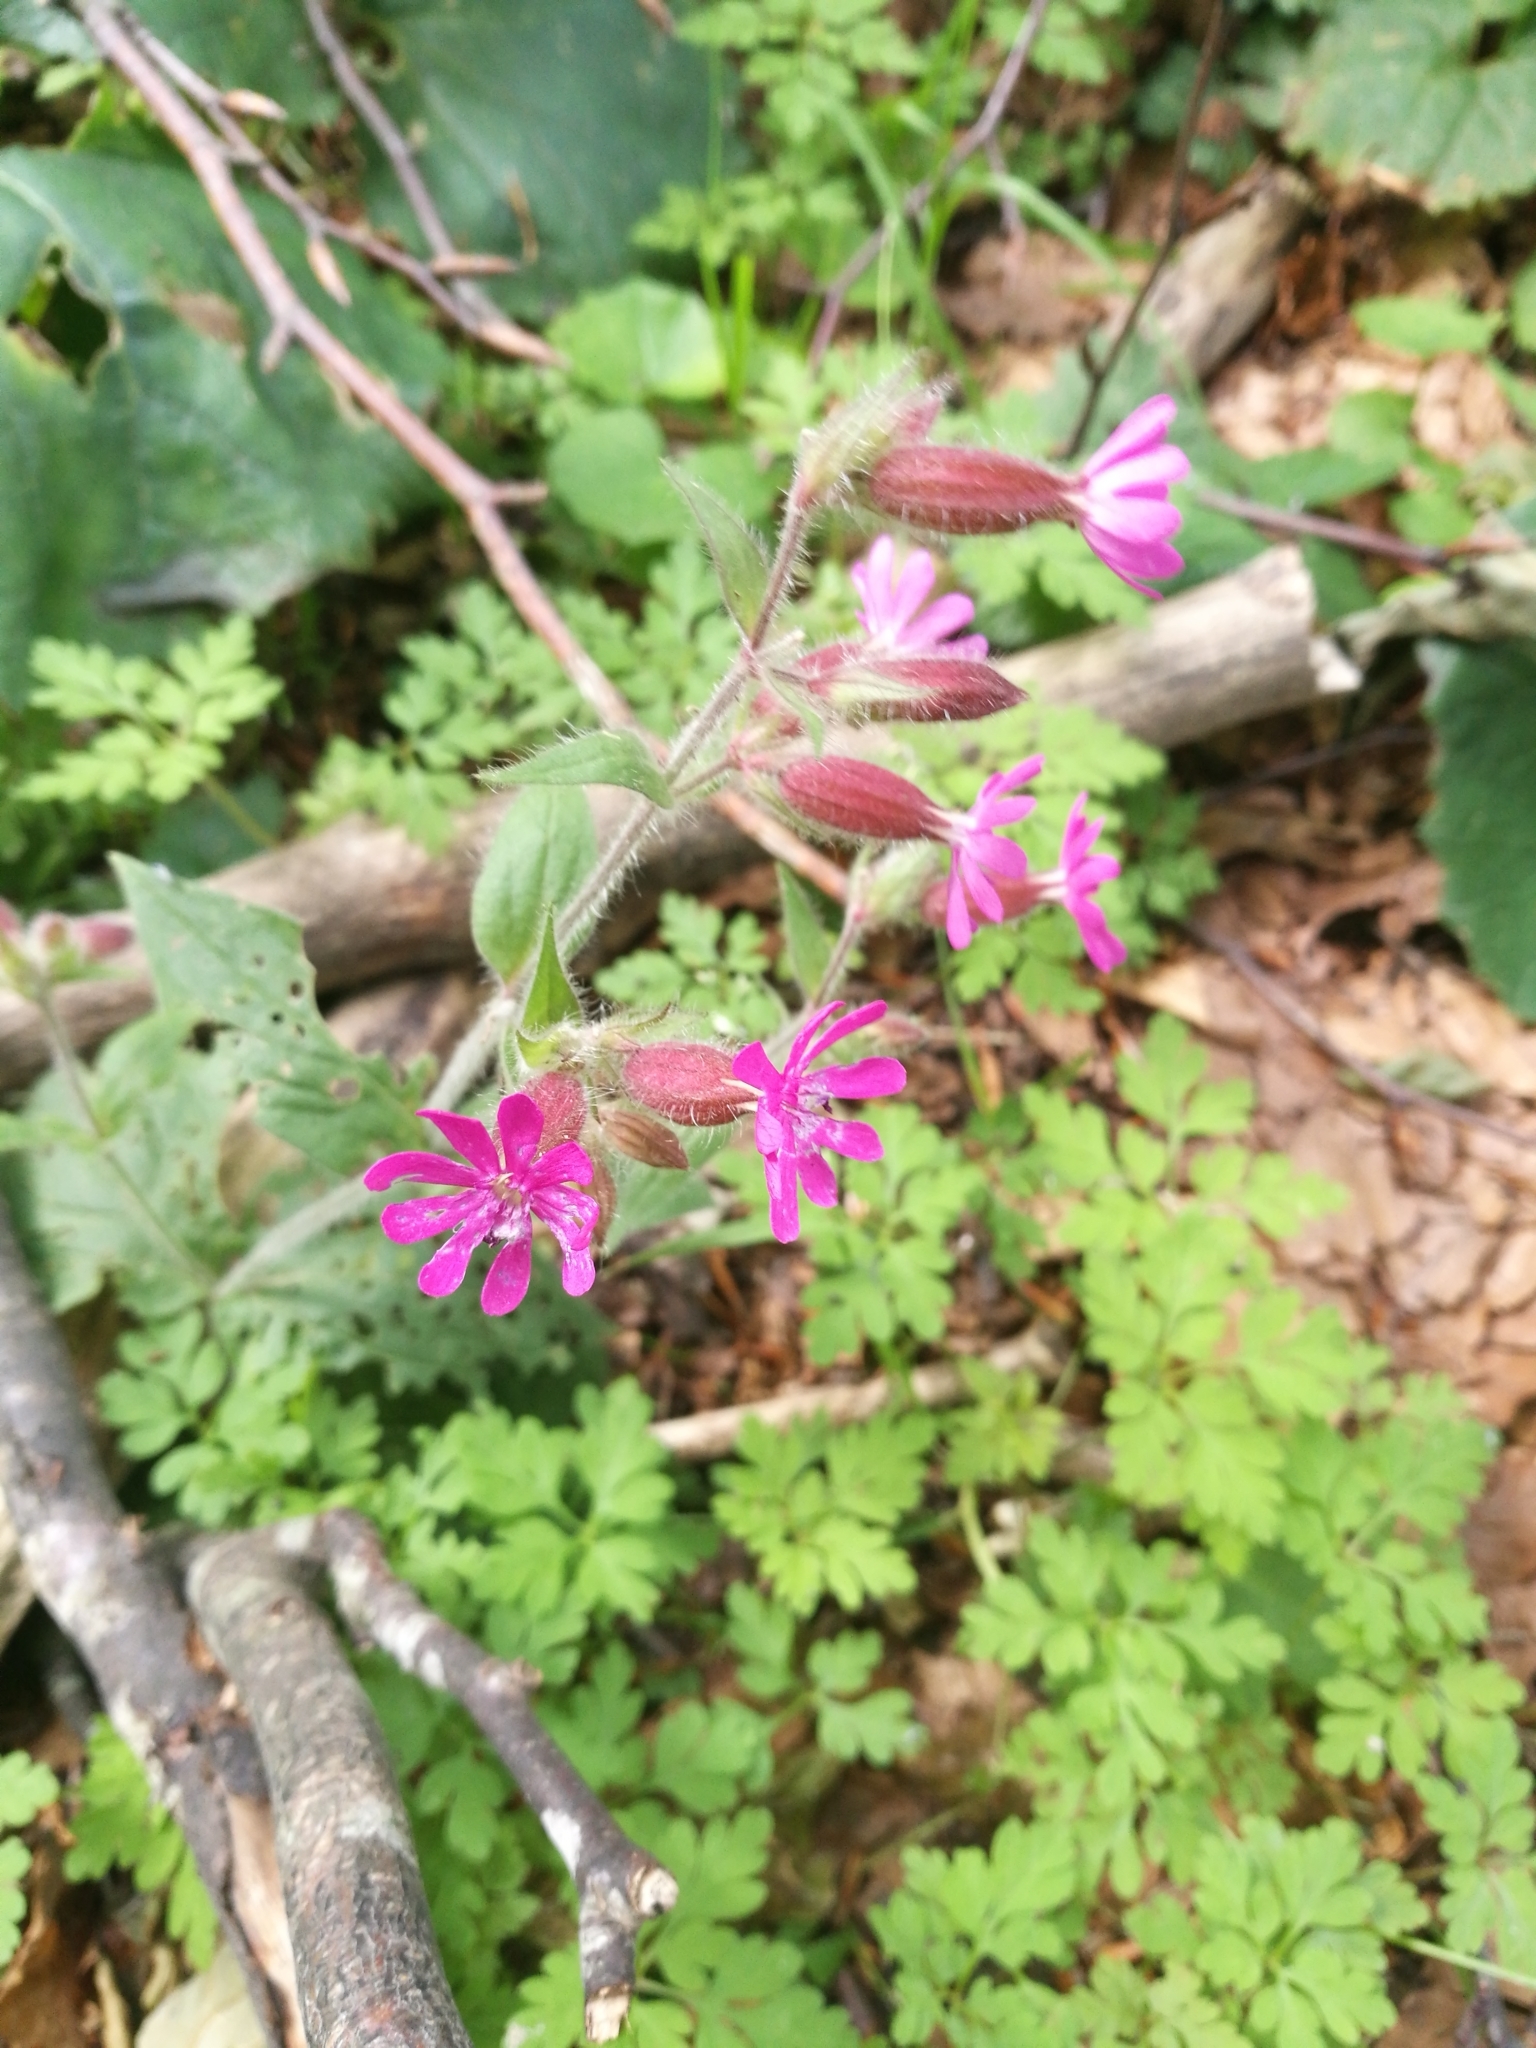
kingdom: Plantae
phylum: Tracheophyta
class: Magnoliopsida
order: Caryophyllales
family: Caryophyllaceae
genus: Silene
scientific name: Silene dioica
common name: Red campion
